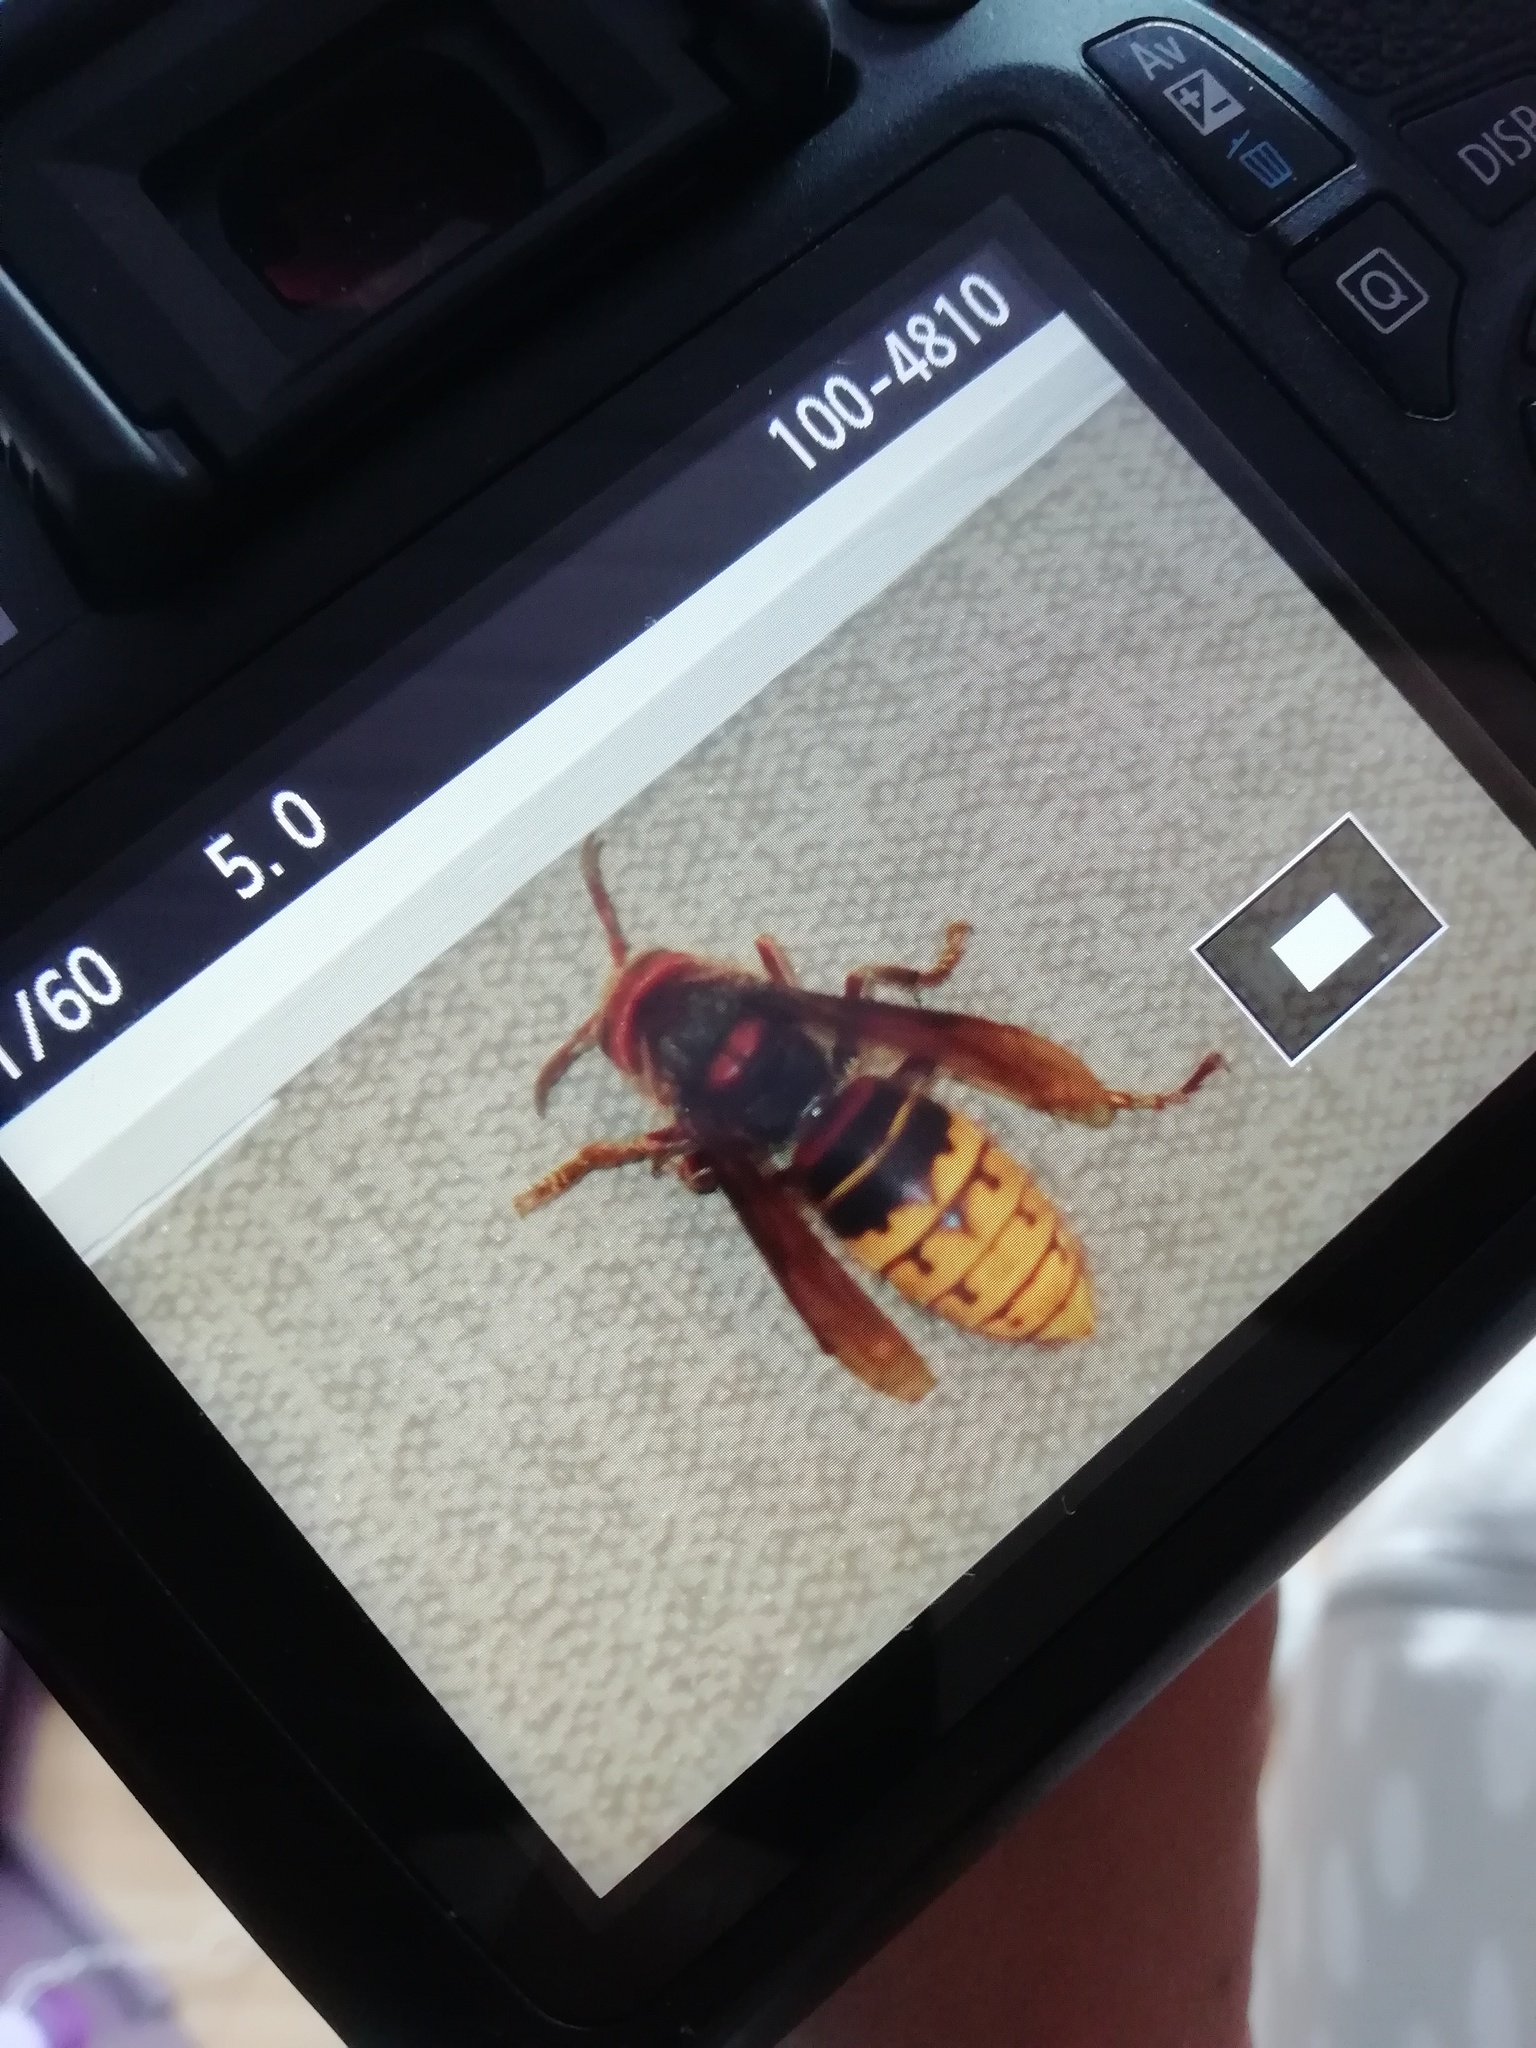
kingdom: Animalia
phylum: Arthropoda
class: Insecta
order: Hymenoptera
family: Vespidae
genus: Vespa
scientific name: Vespa crabro
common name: Hornet
